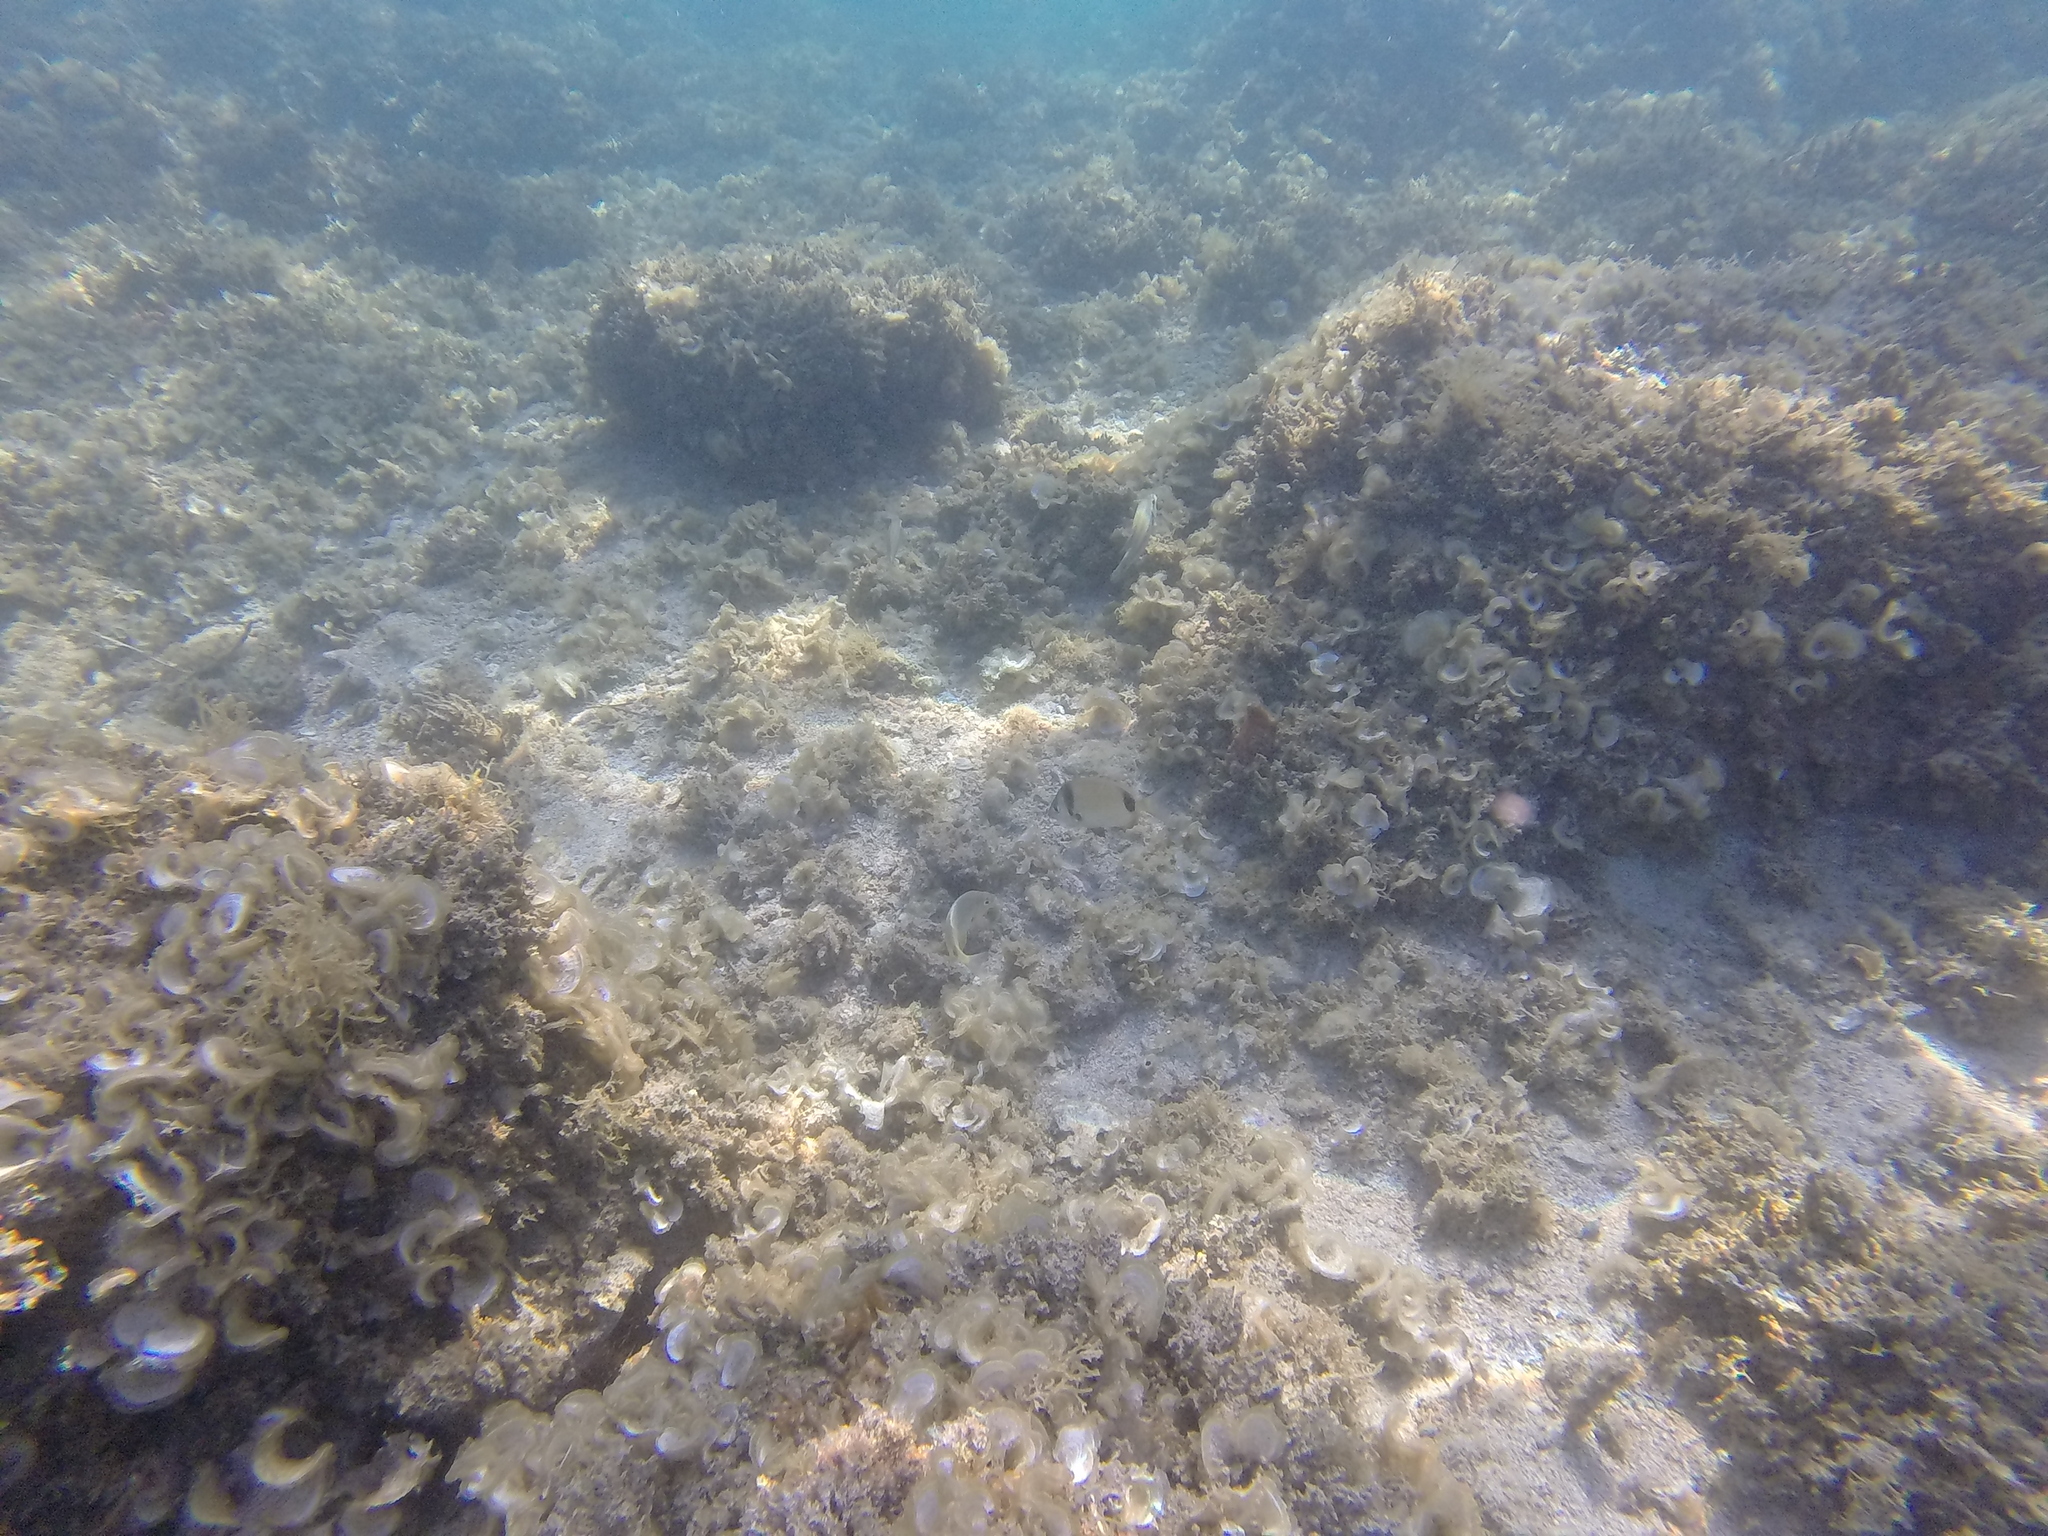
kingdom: Animalia
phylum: Chordata
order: Perciformes
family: Sparidae
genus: Diplodus
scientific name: Diplodus vulgaris
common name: Common two-banded seabream
